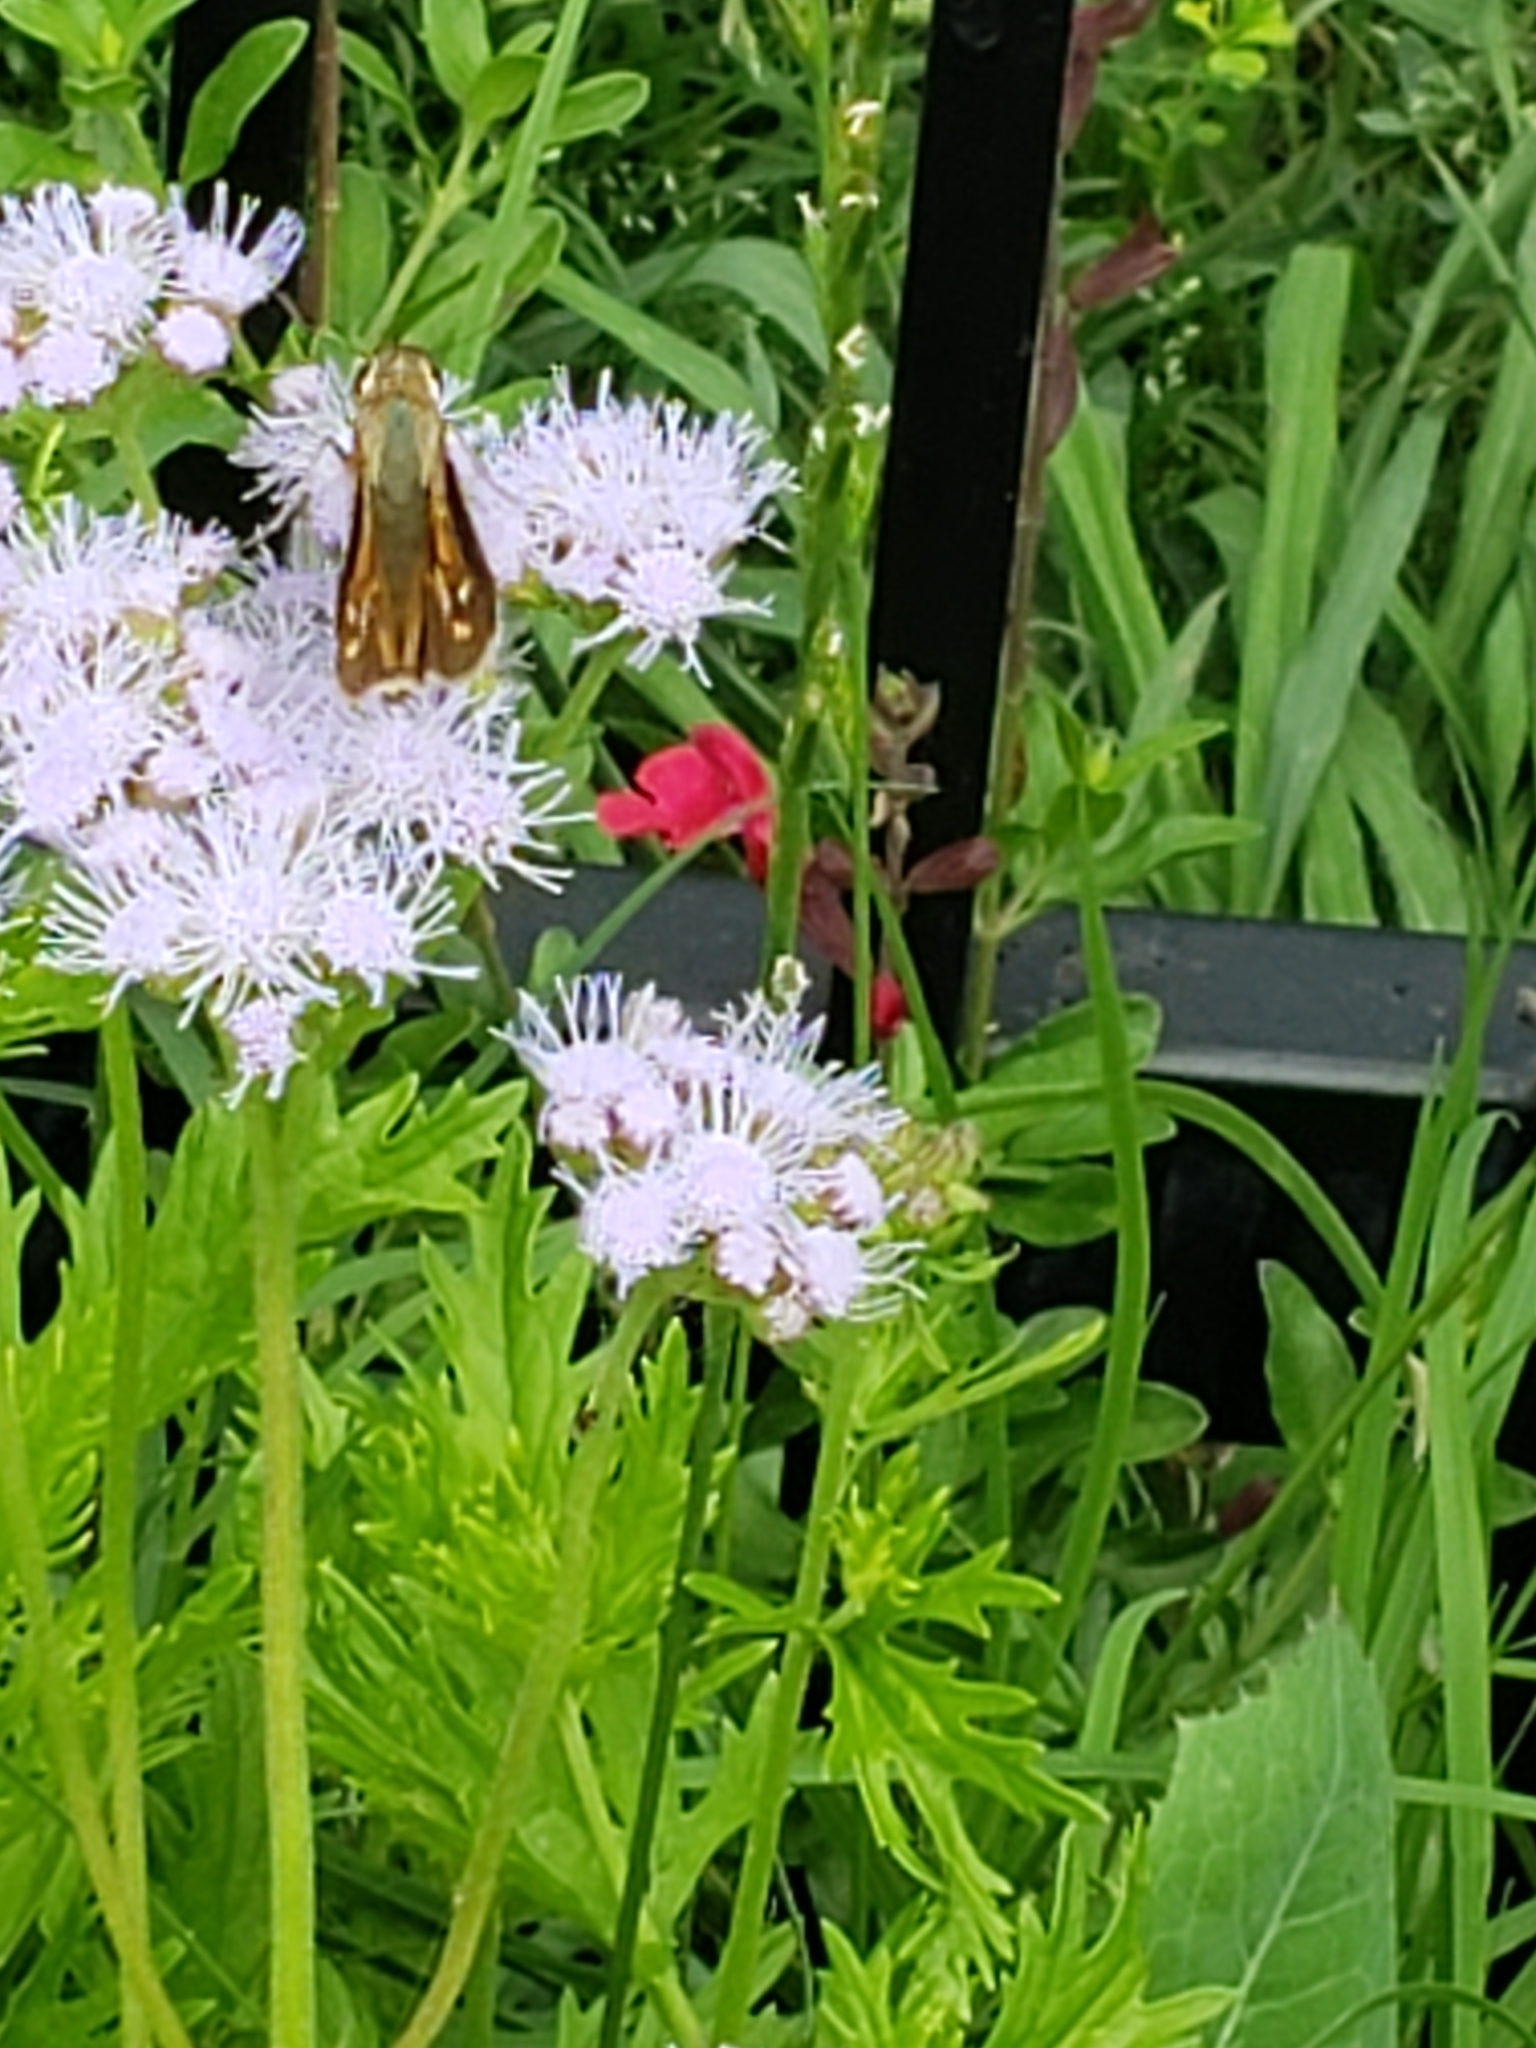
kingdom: Animalia
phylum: Arthropoda
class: Insecta
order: Lepidoptera
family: Hesperiidae
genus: Atalopedes
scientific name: Atalopedes
